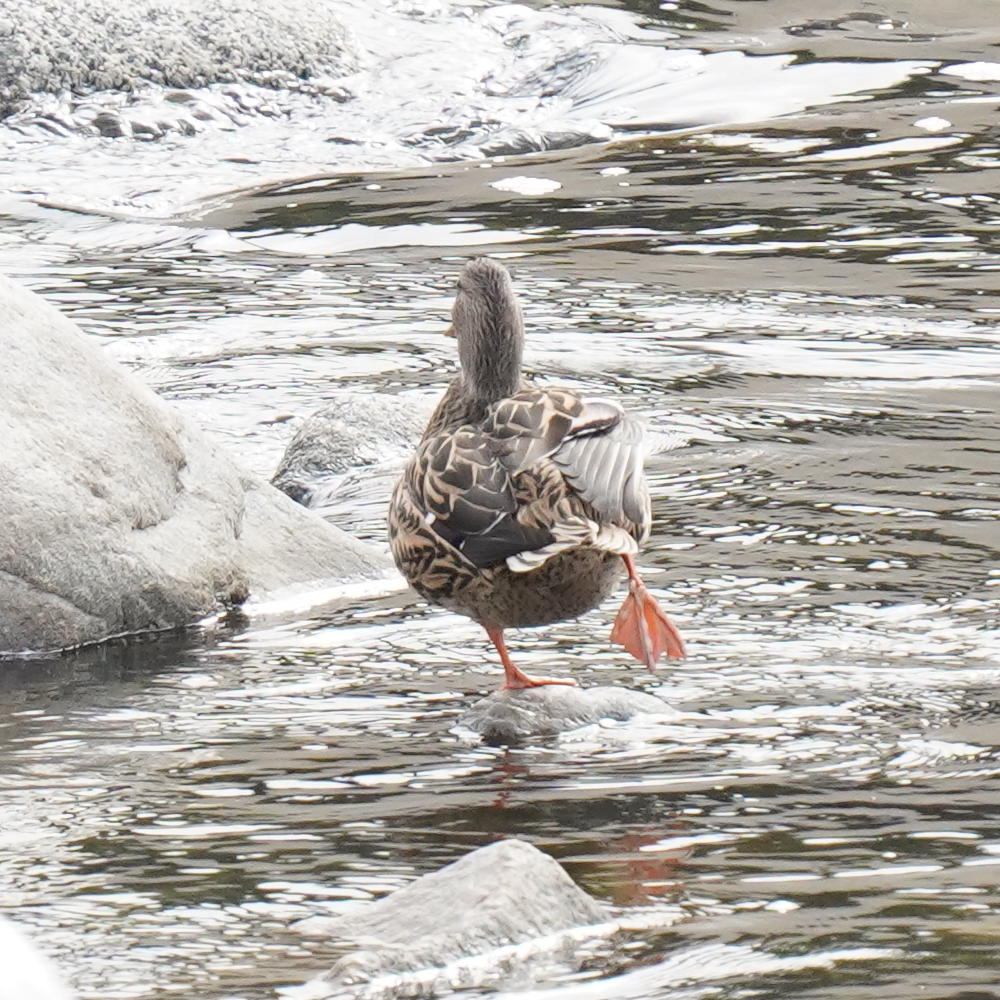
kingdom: Animalia
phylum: Chordata
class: Aves
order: Anseriformes
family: Anatidae
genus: Anas
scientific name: Anas platyrhynchos
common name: Mallard
